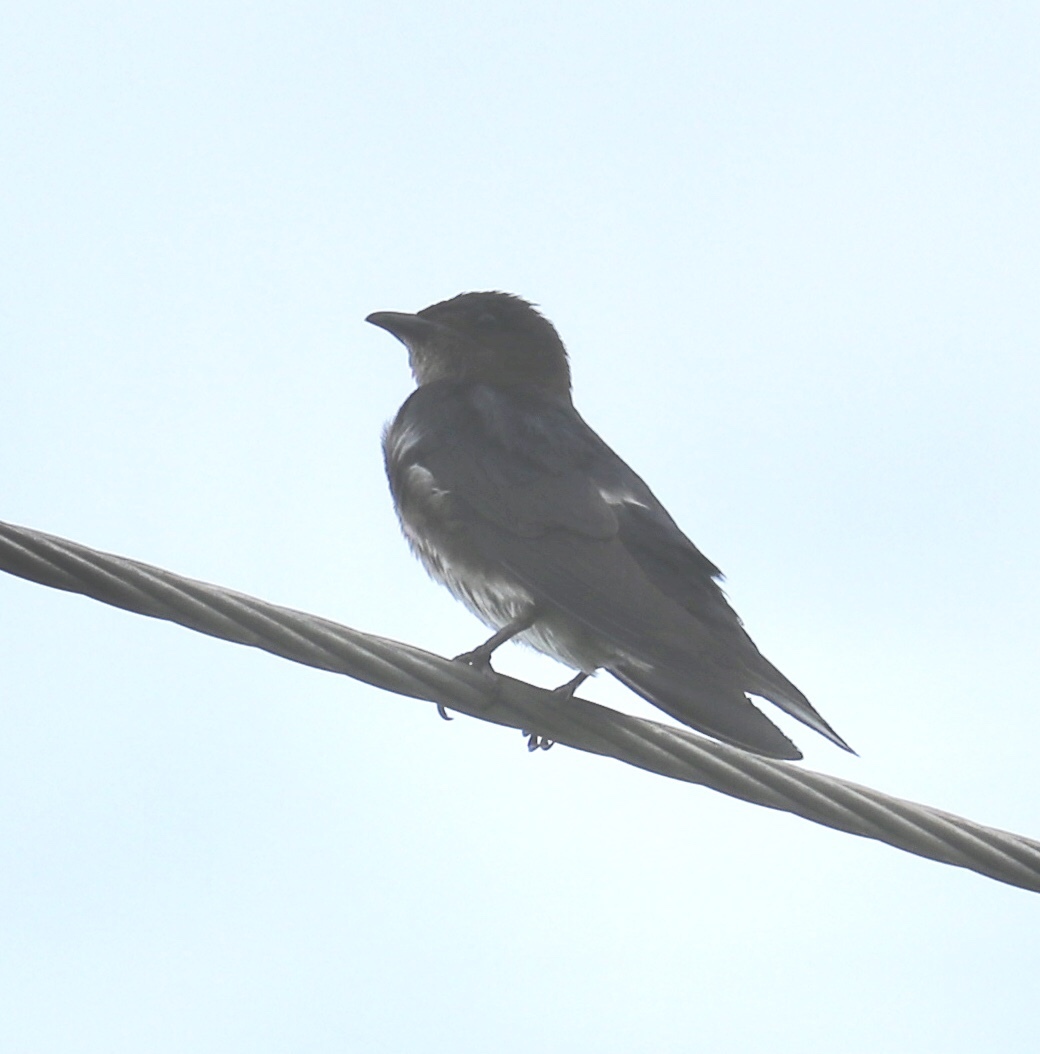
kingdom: Animalia
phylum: Chordata
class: Aves
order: Passeriformes
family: Hirundinidae
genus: Progne
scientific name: Progne chalybea
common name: Grey-breasted martin
